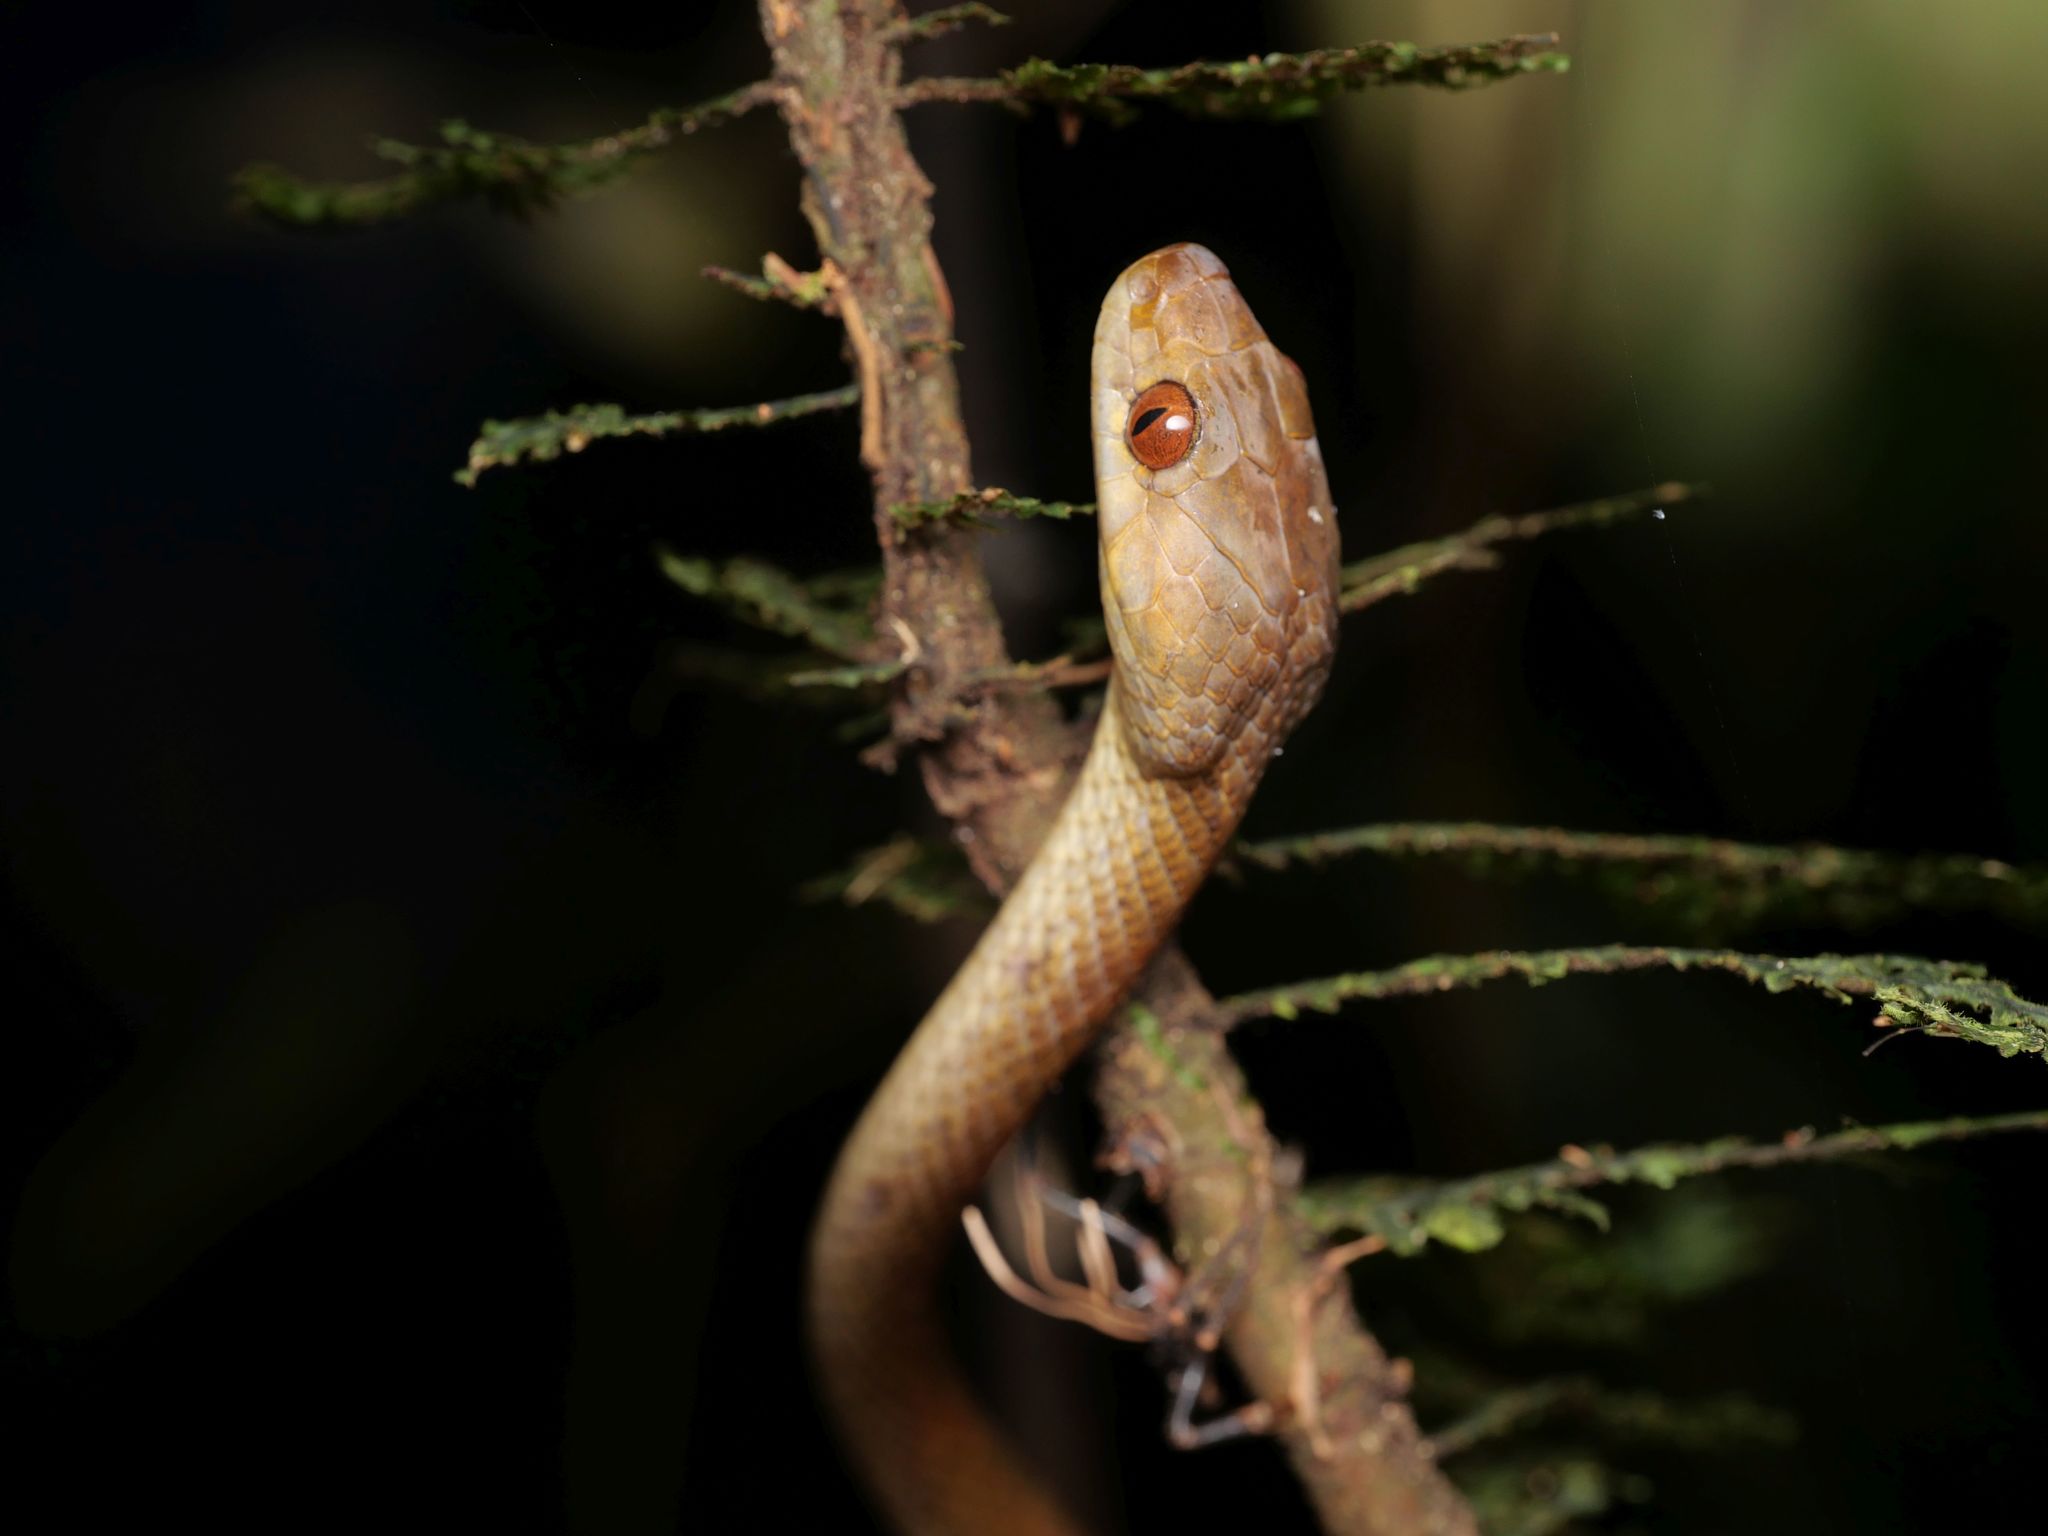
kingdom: Animalia
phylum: Chordata
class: Squamata
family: Colubridae
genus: Leptodeira
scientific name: Leptodeira ornata
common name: Northern cat-eyed snake
